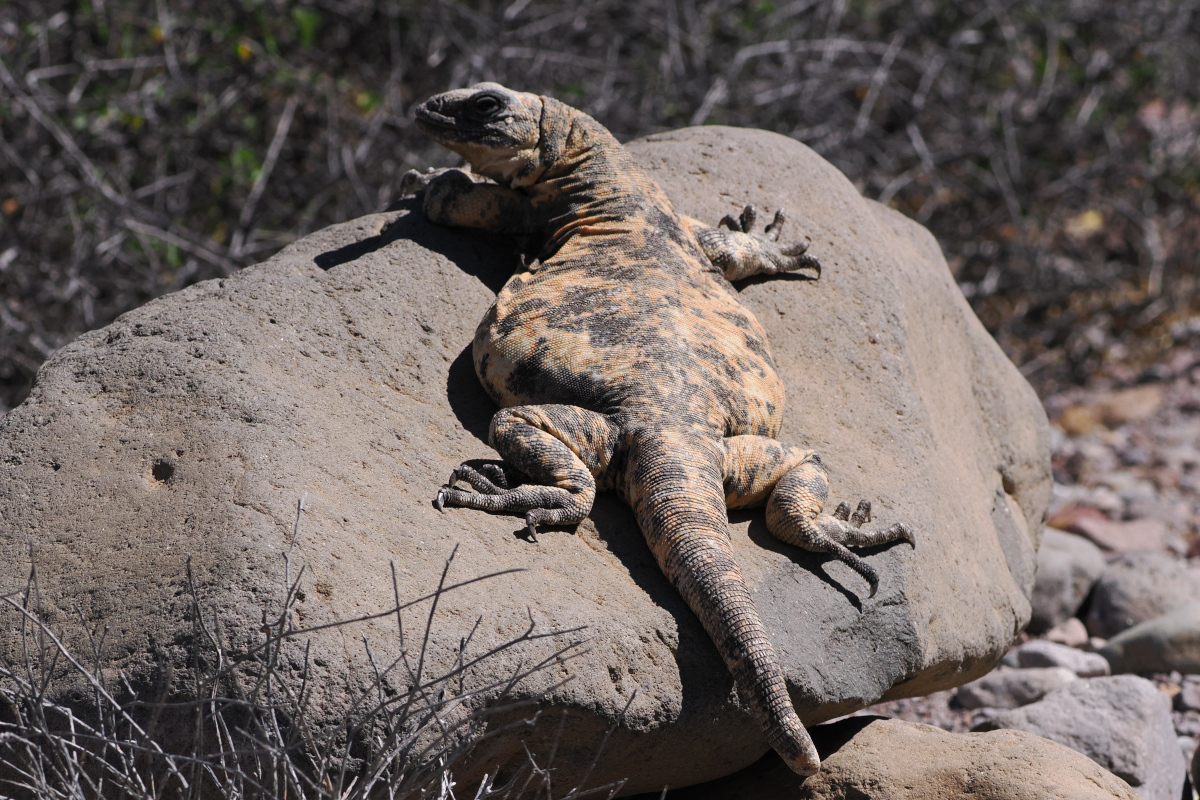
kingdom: Animalia
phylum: Chordata
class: Squamata
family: Iguanidae
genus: Sauromalus
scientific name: Sauromalus varius
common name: Piebald chuckwalla
